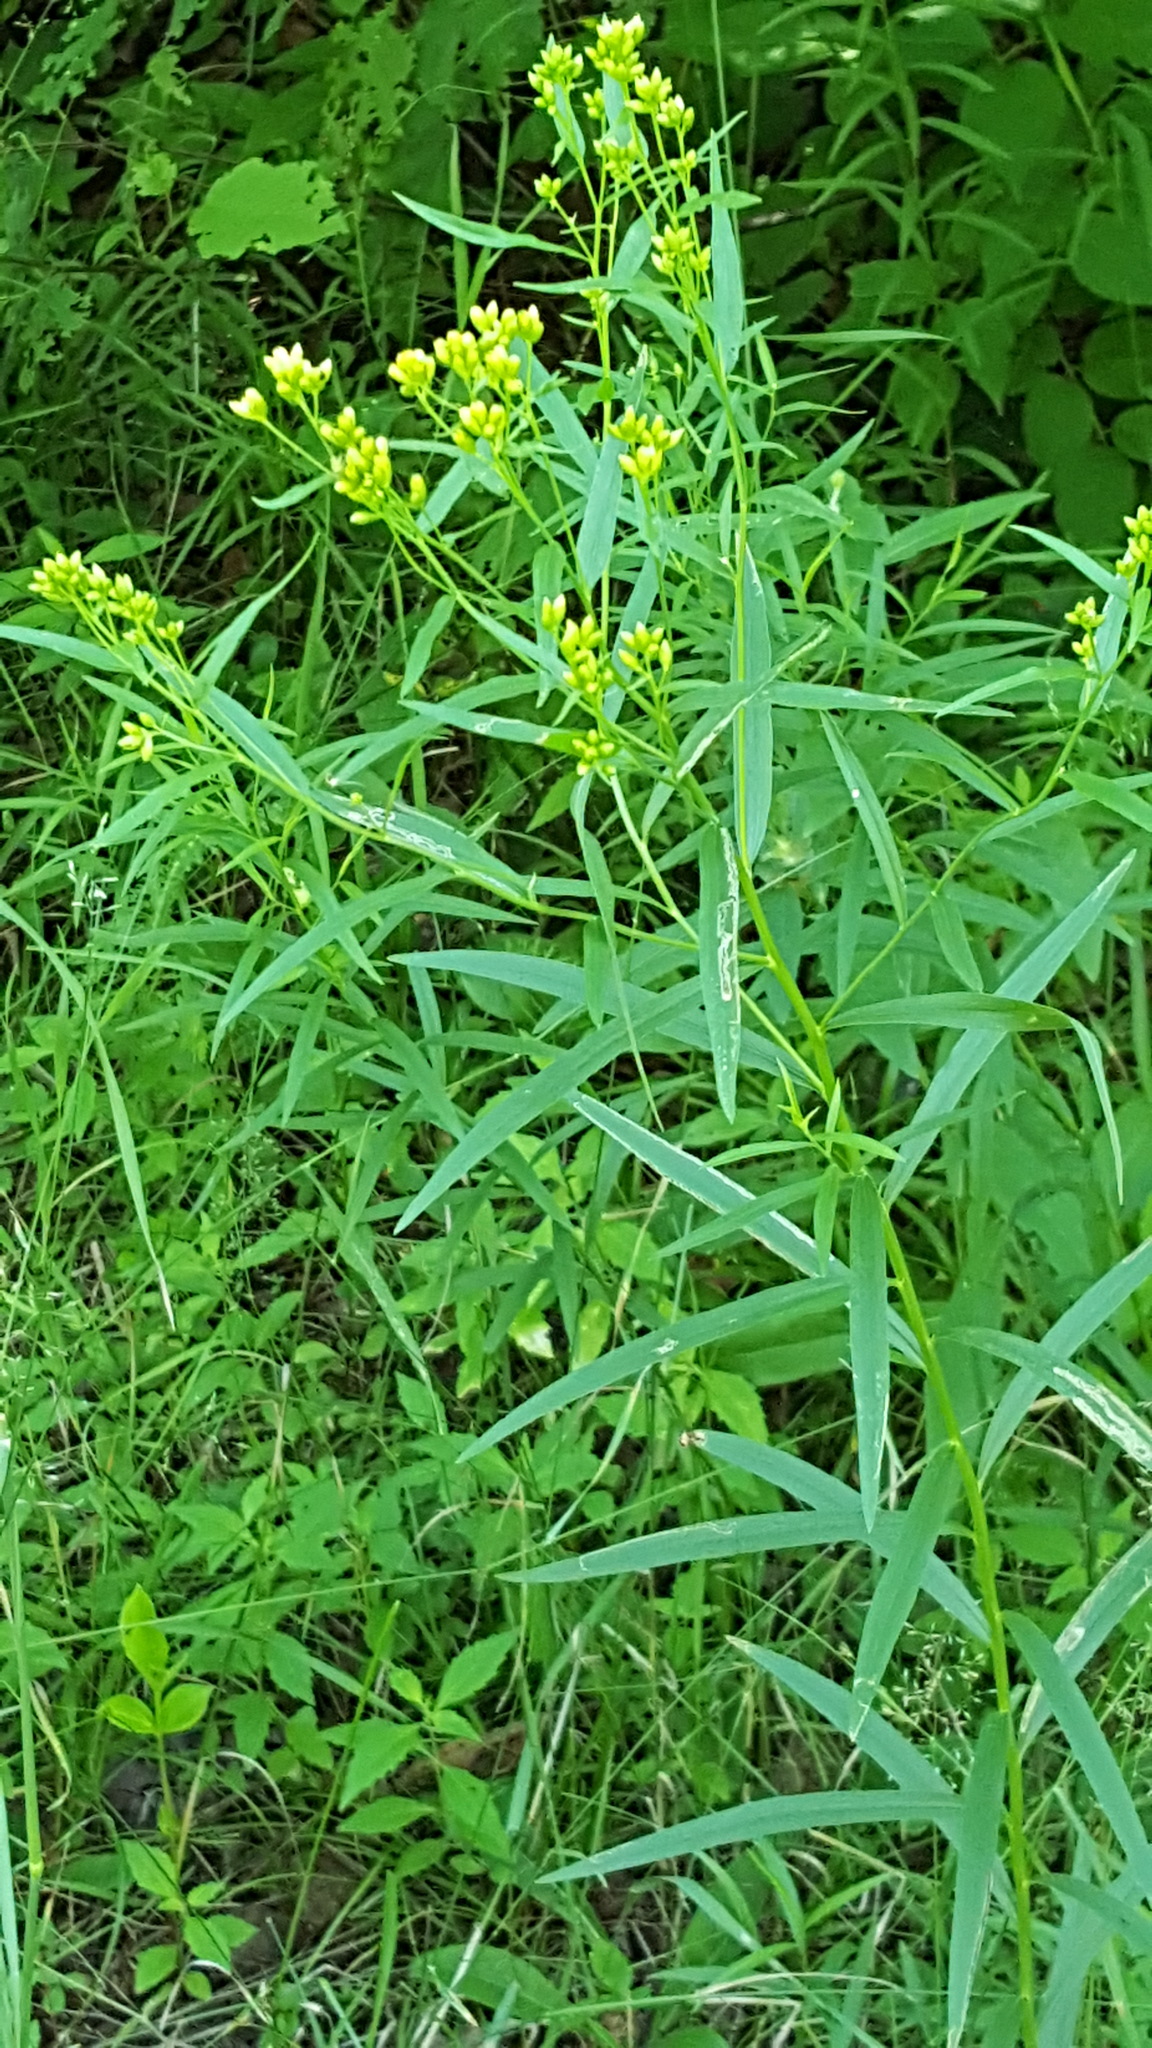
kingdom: Plantae
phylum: Tracheophyta
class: Magnoliopsida
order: Asterales
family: Asteraceae
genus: Euthamia
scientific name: Euthamia graminifolia
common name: Common goldentop
